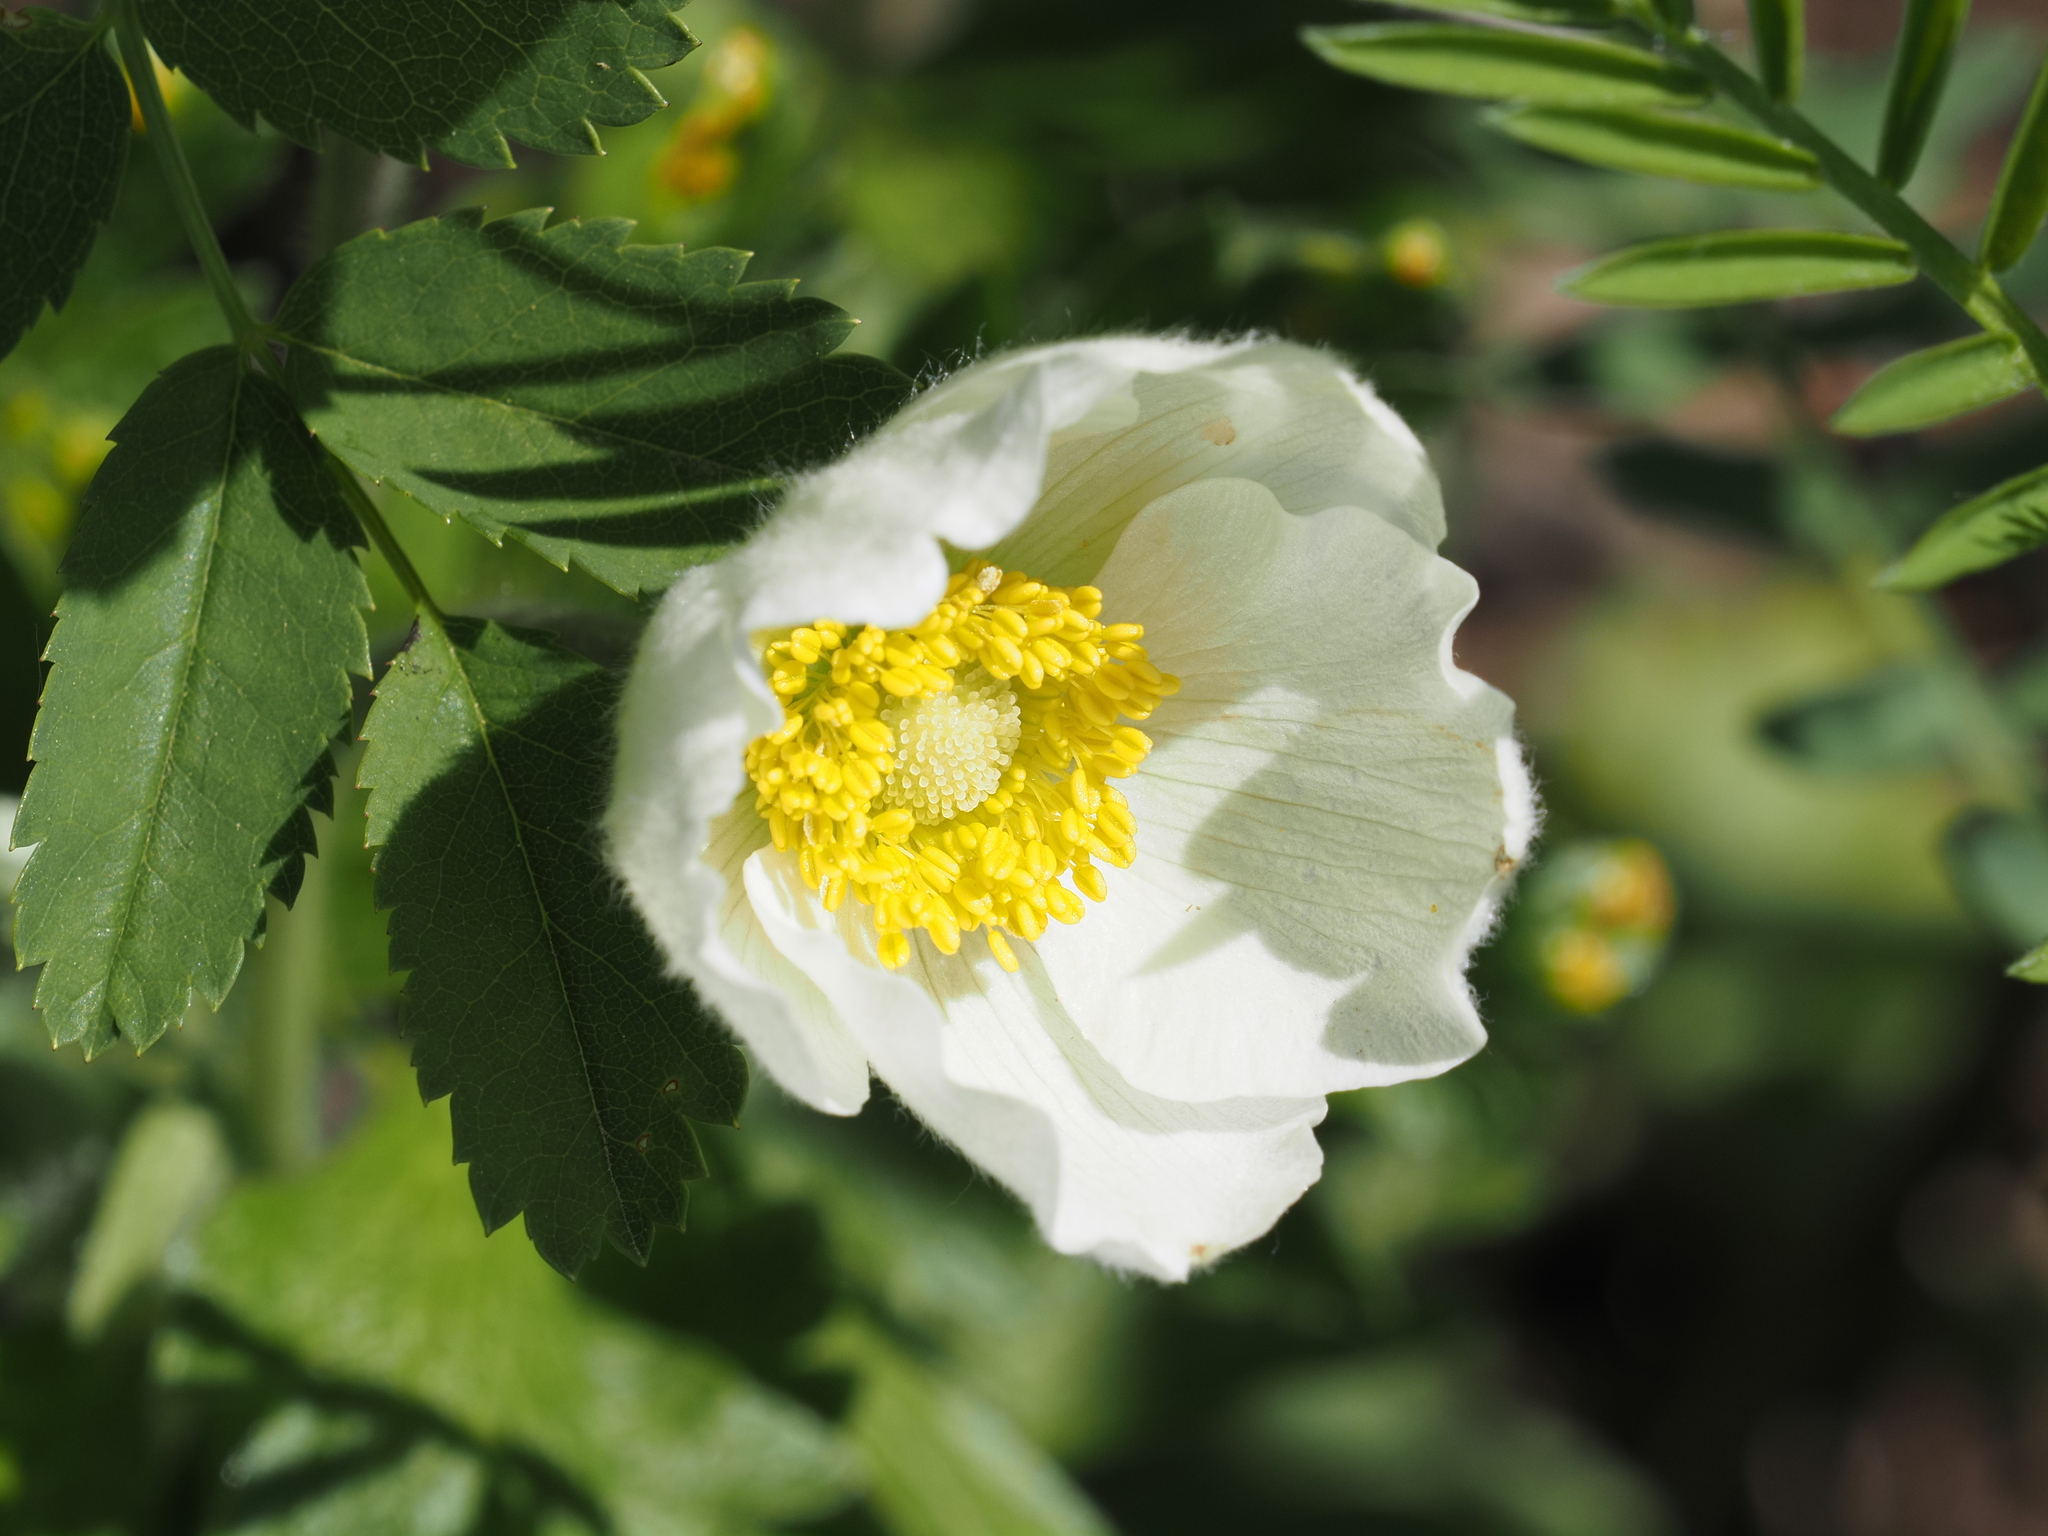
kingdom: Plantae
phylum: Tracheophyta
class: Magnoliopsida
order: Ranunculales
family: Ranunculaceae
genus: Anemone
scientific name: Anemone sylvestris
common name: Snowdrop anemone
